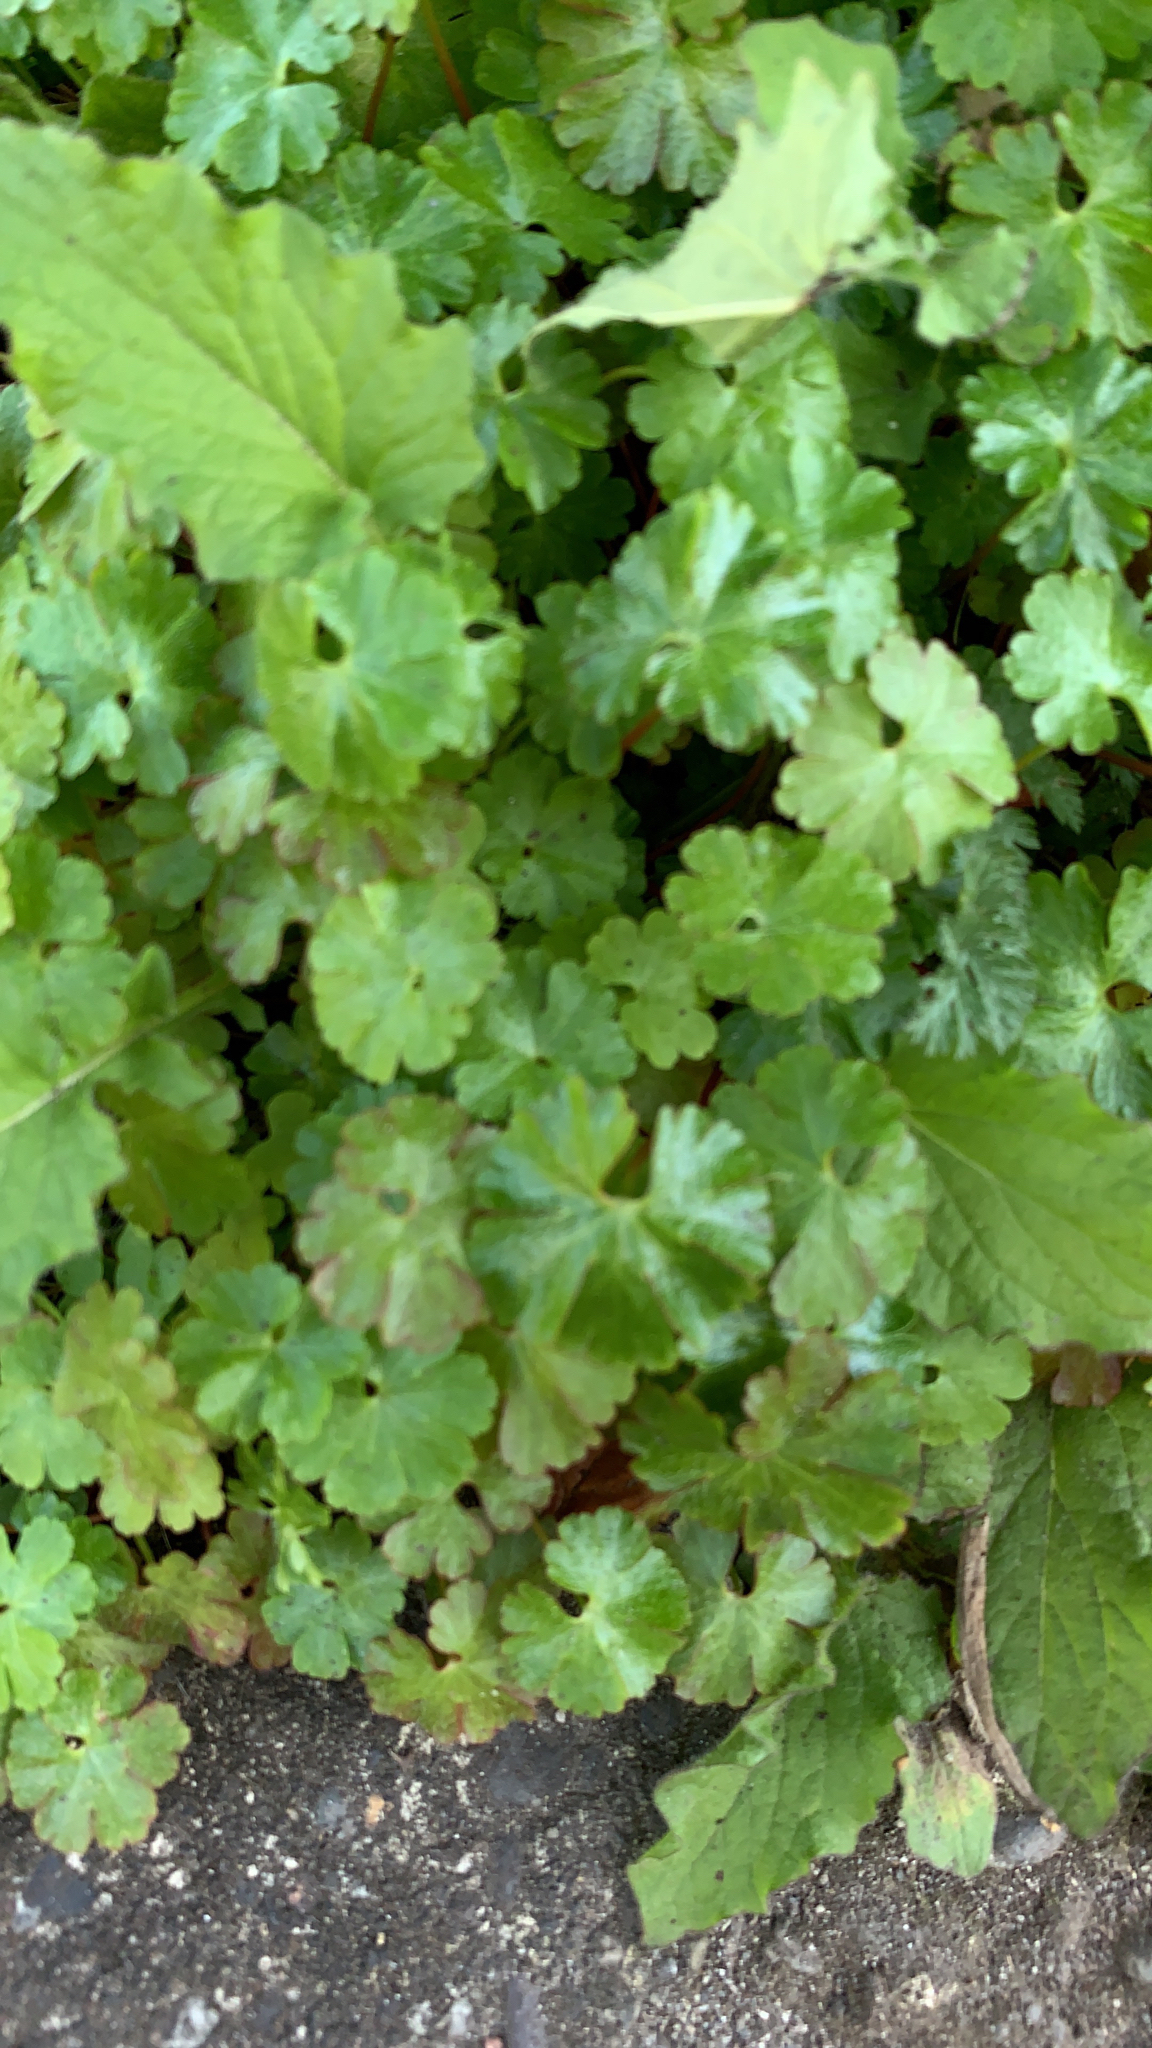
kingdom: Plantae
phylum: Tracheophyta
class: Magnoliopsida
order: Geraniales
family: Geraniaceae
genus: Geranium
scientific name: Geranium lucidum
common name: Shining crane's-bill
